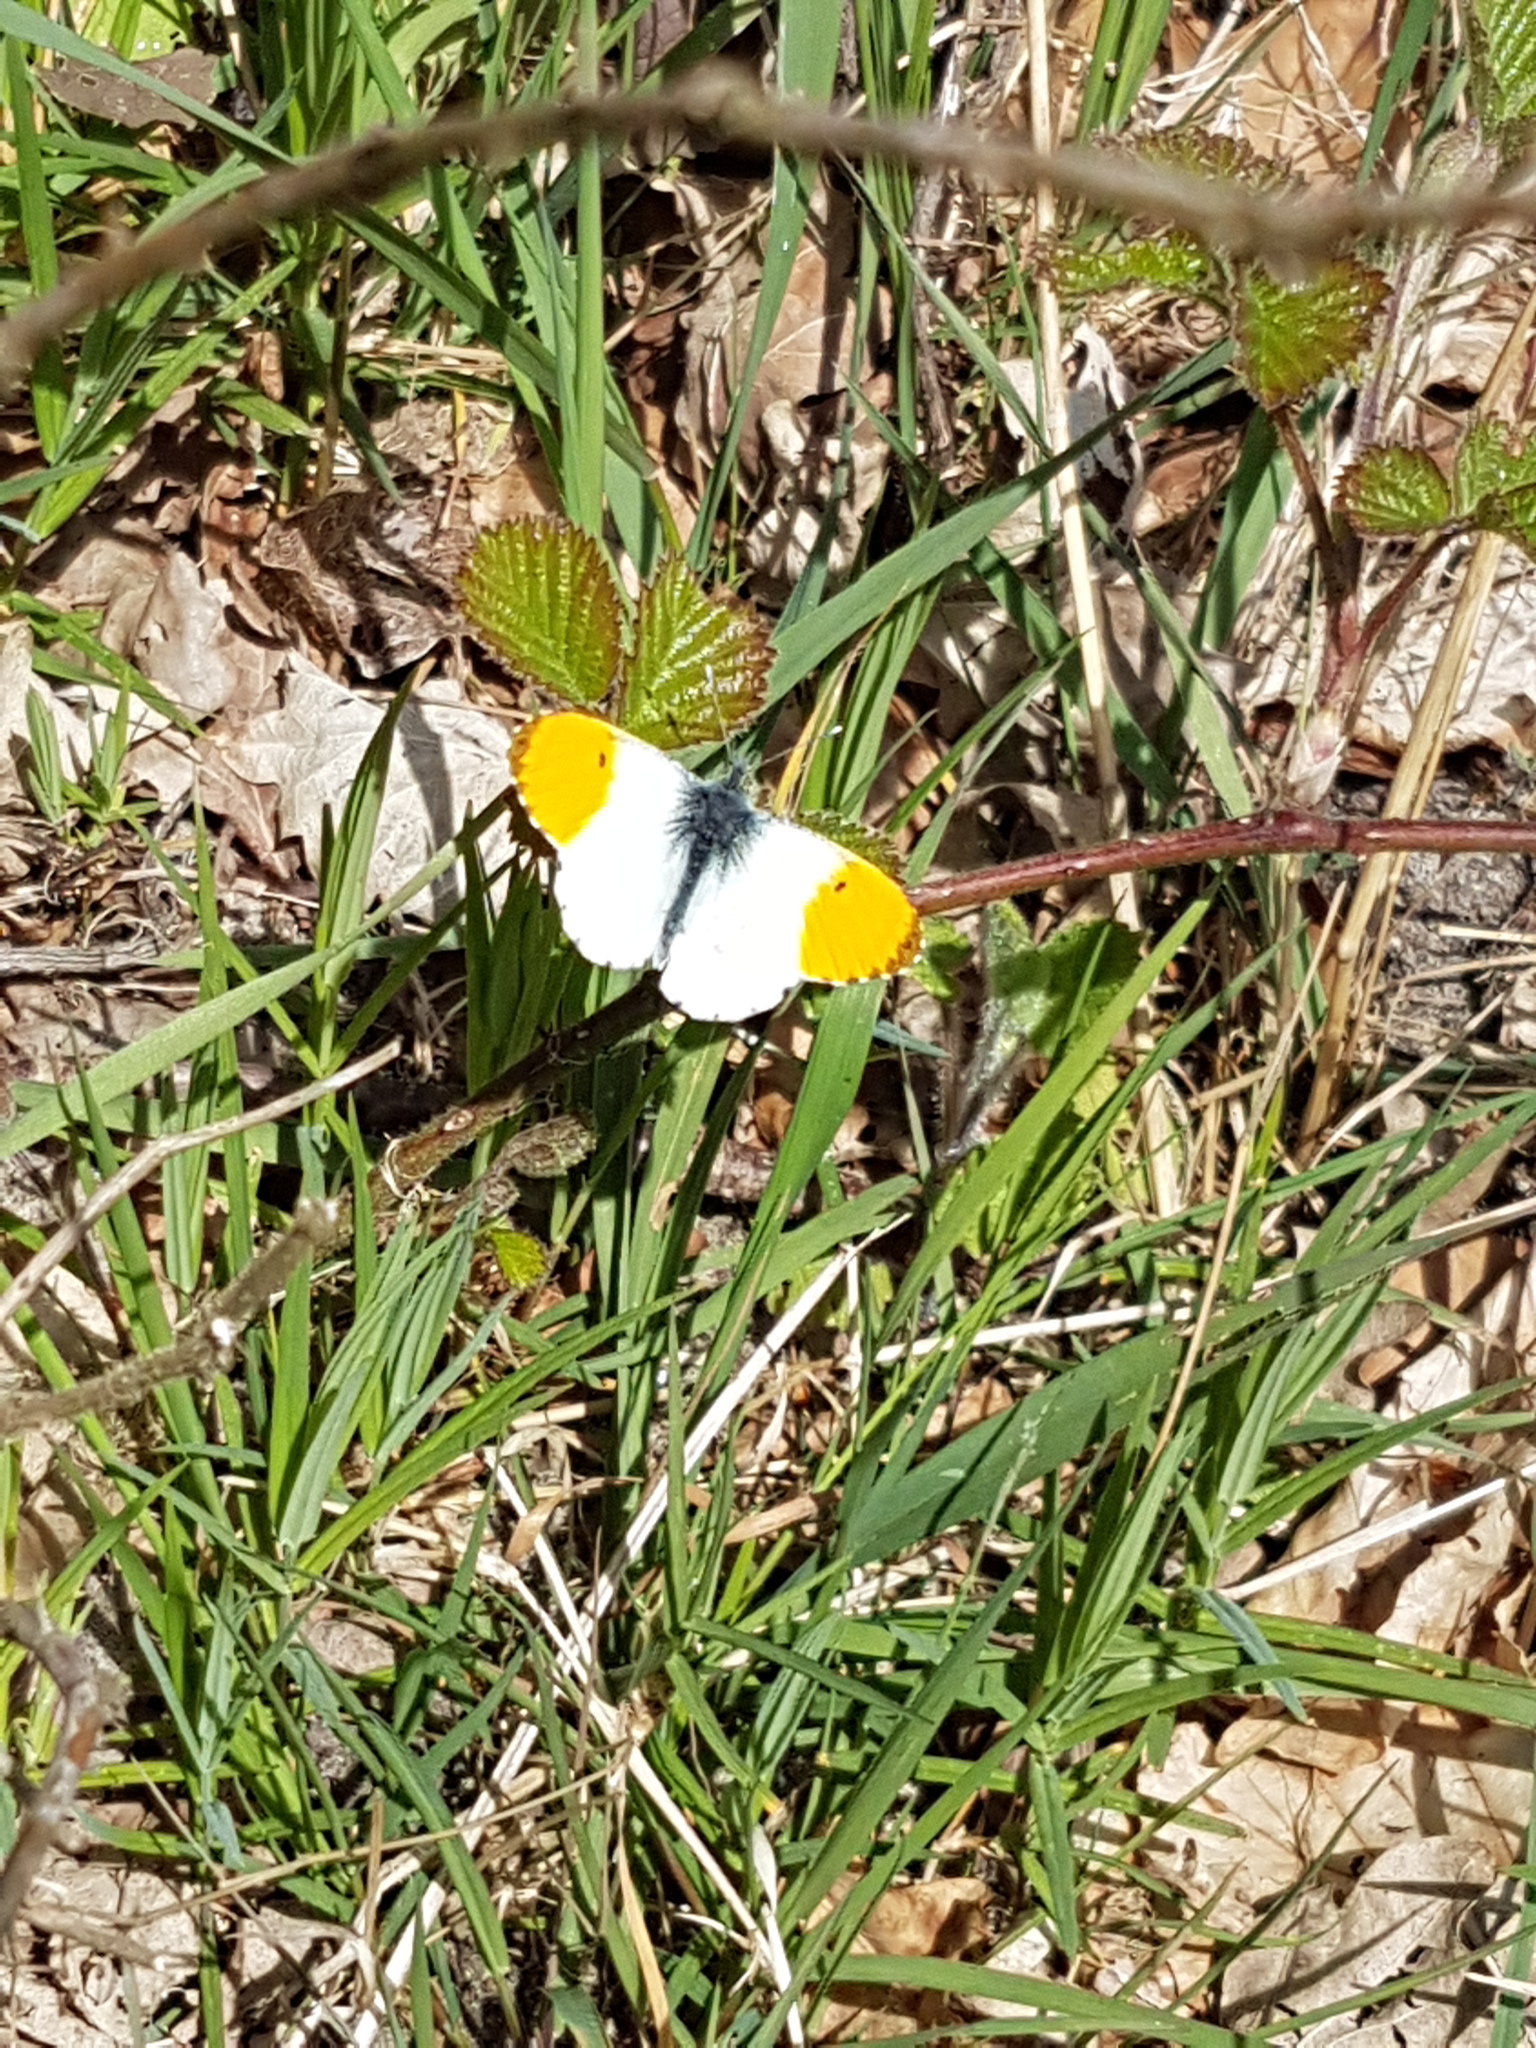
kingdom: Animalia
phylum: Arthropoda
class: Insecta
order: Lepidoptera
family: Pieridae
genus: Anthocharis
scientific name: Anthocharis cardamines
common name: Orange-tip
